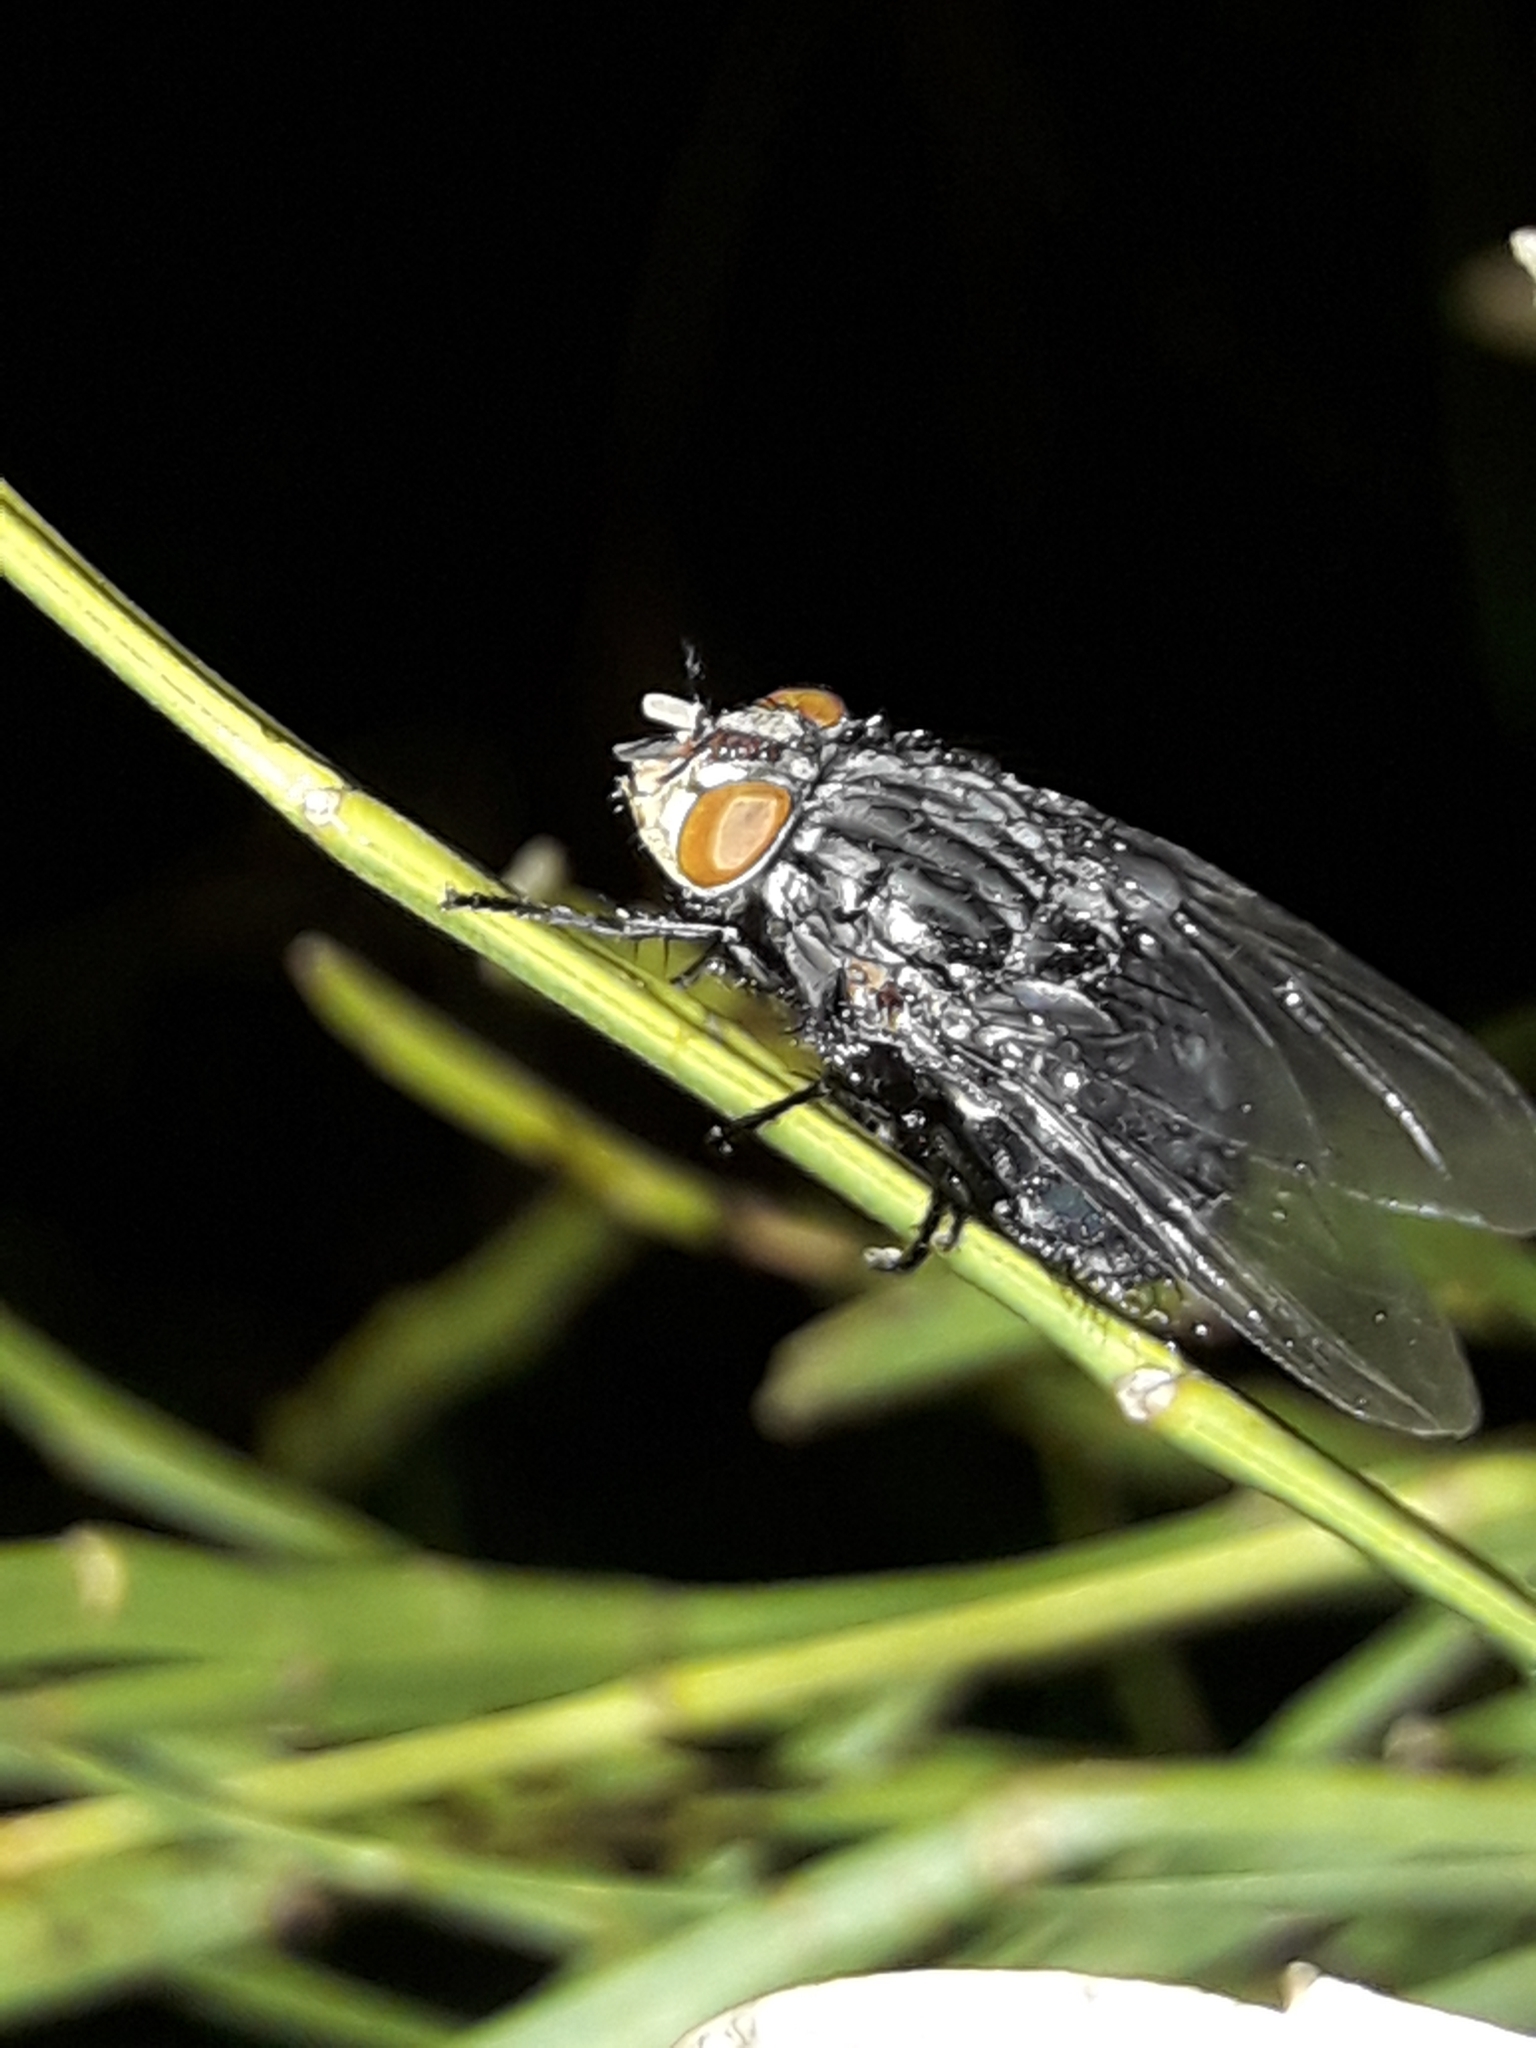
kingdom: Animalia
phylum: Arthropoda
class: Insecta
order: Diptera
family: Calliphoridae
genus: Calliphora
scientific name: Calliphora vicina
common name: Common blow flie
